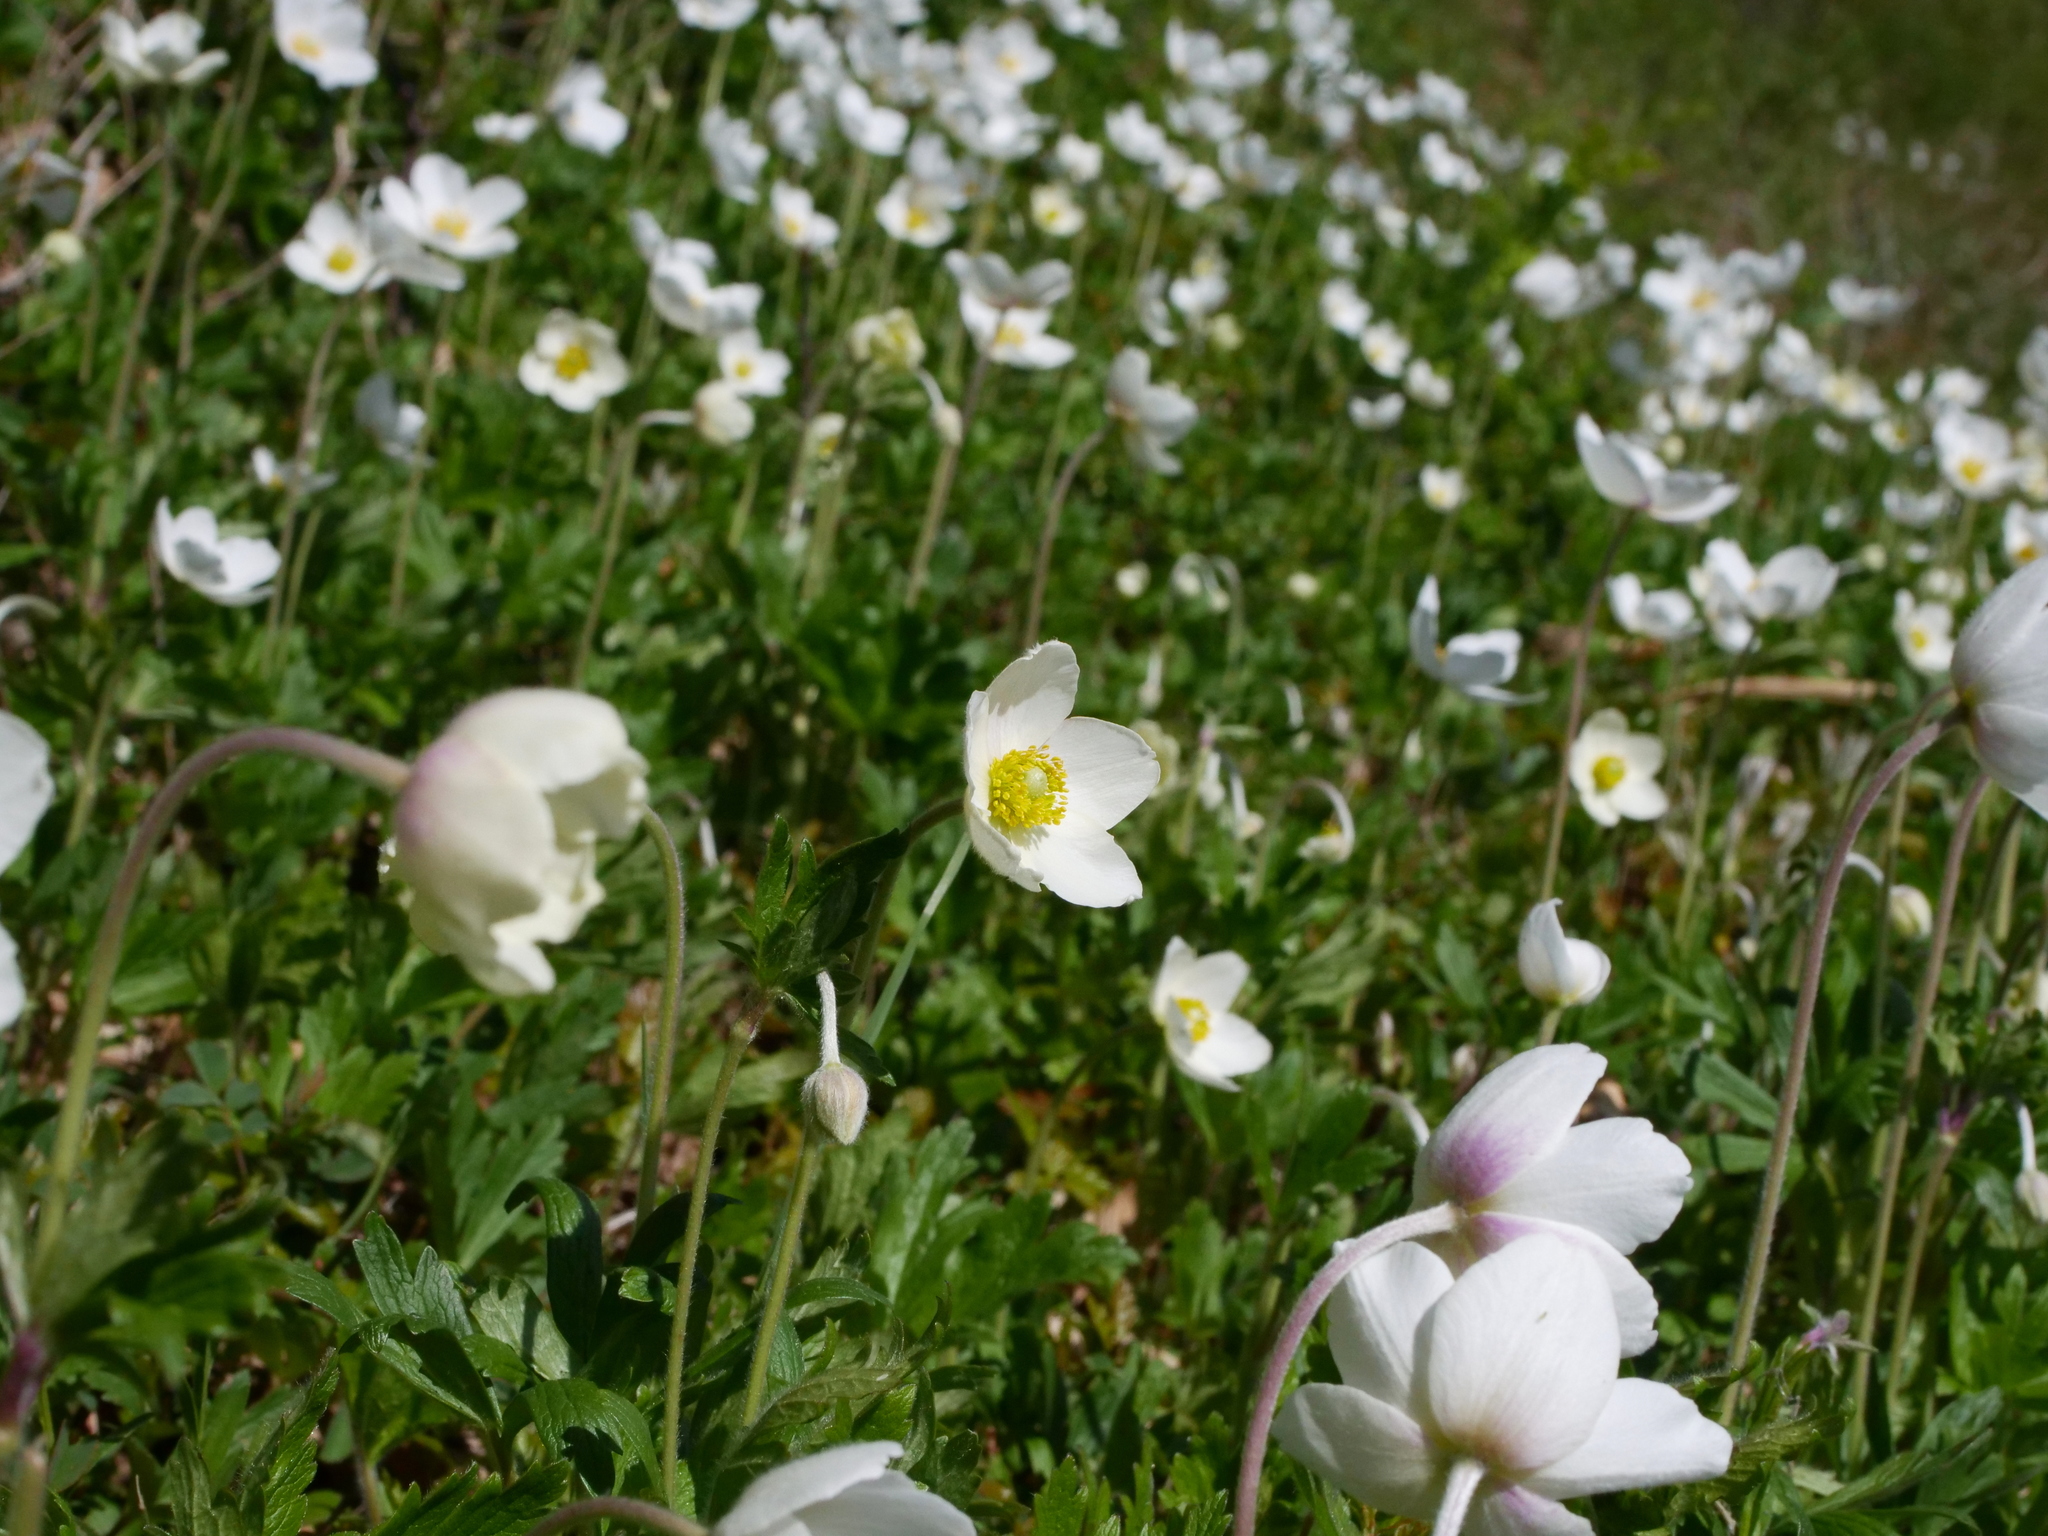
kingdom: Plantae
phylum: Tracheophyta
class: Magnoliopsida
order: Ranunculales
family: Ranunculaceae
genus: Anemone
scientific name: Anemone sylvestris
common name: Snowdrop anemone
